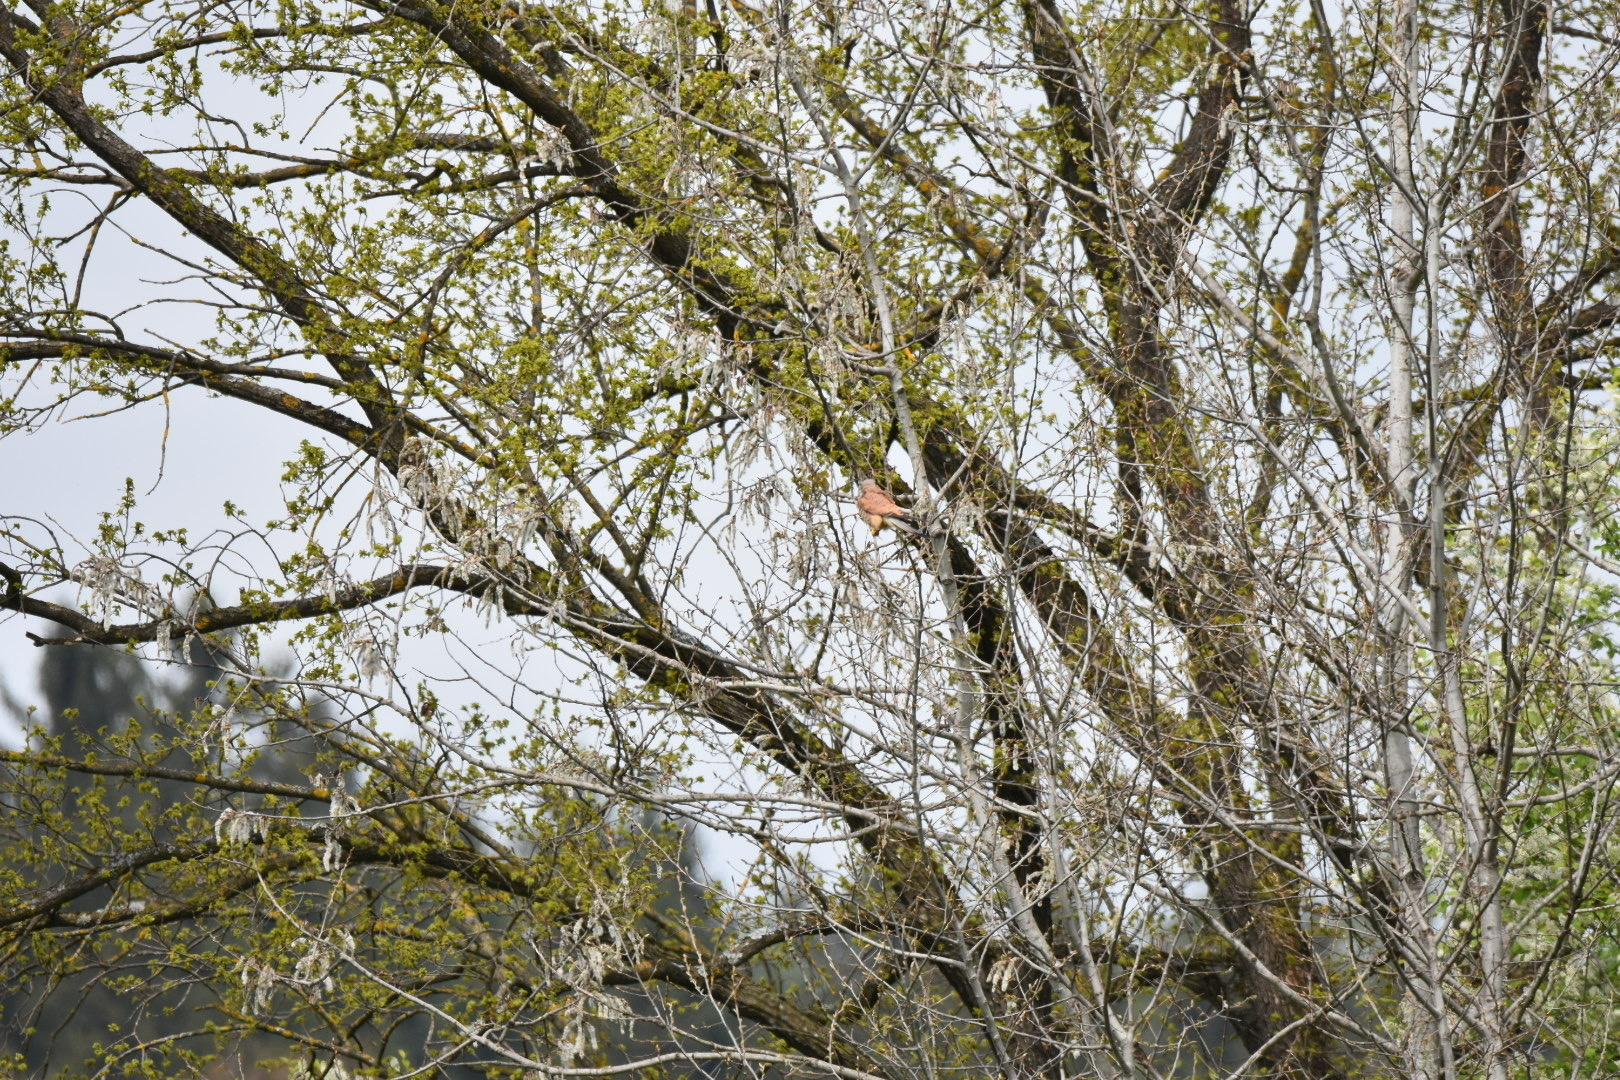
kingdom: Animalia
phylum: Chordata
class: Aves
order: Falconiformes
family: Falconidae
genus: Falco
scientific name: Falco tinnunculus
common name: Common kestrel
